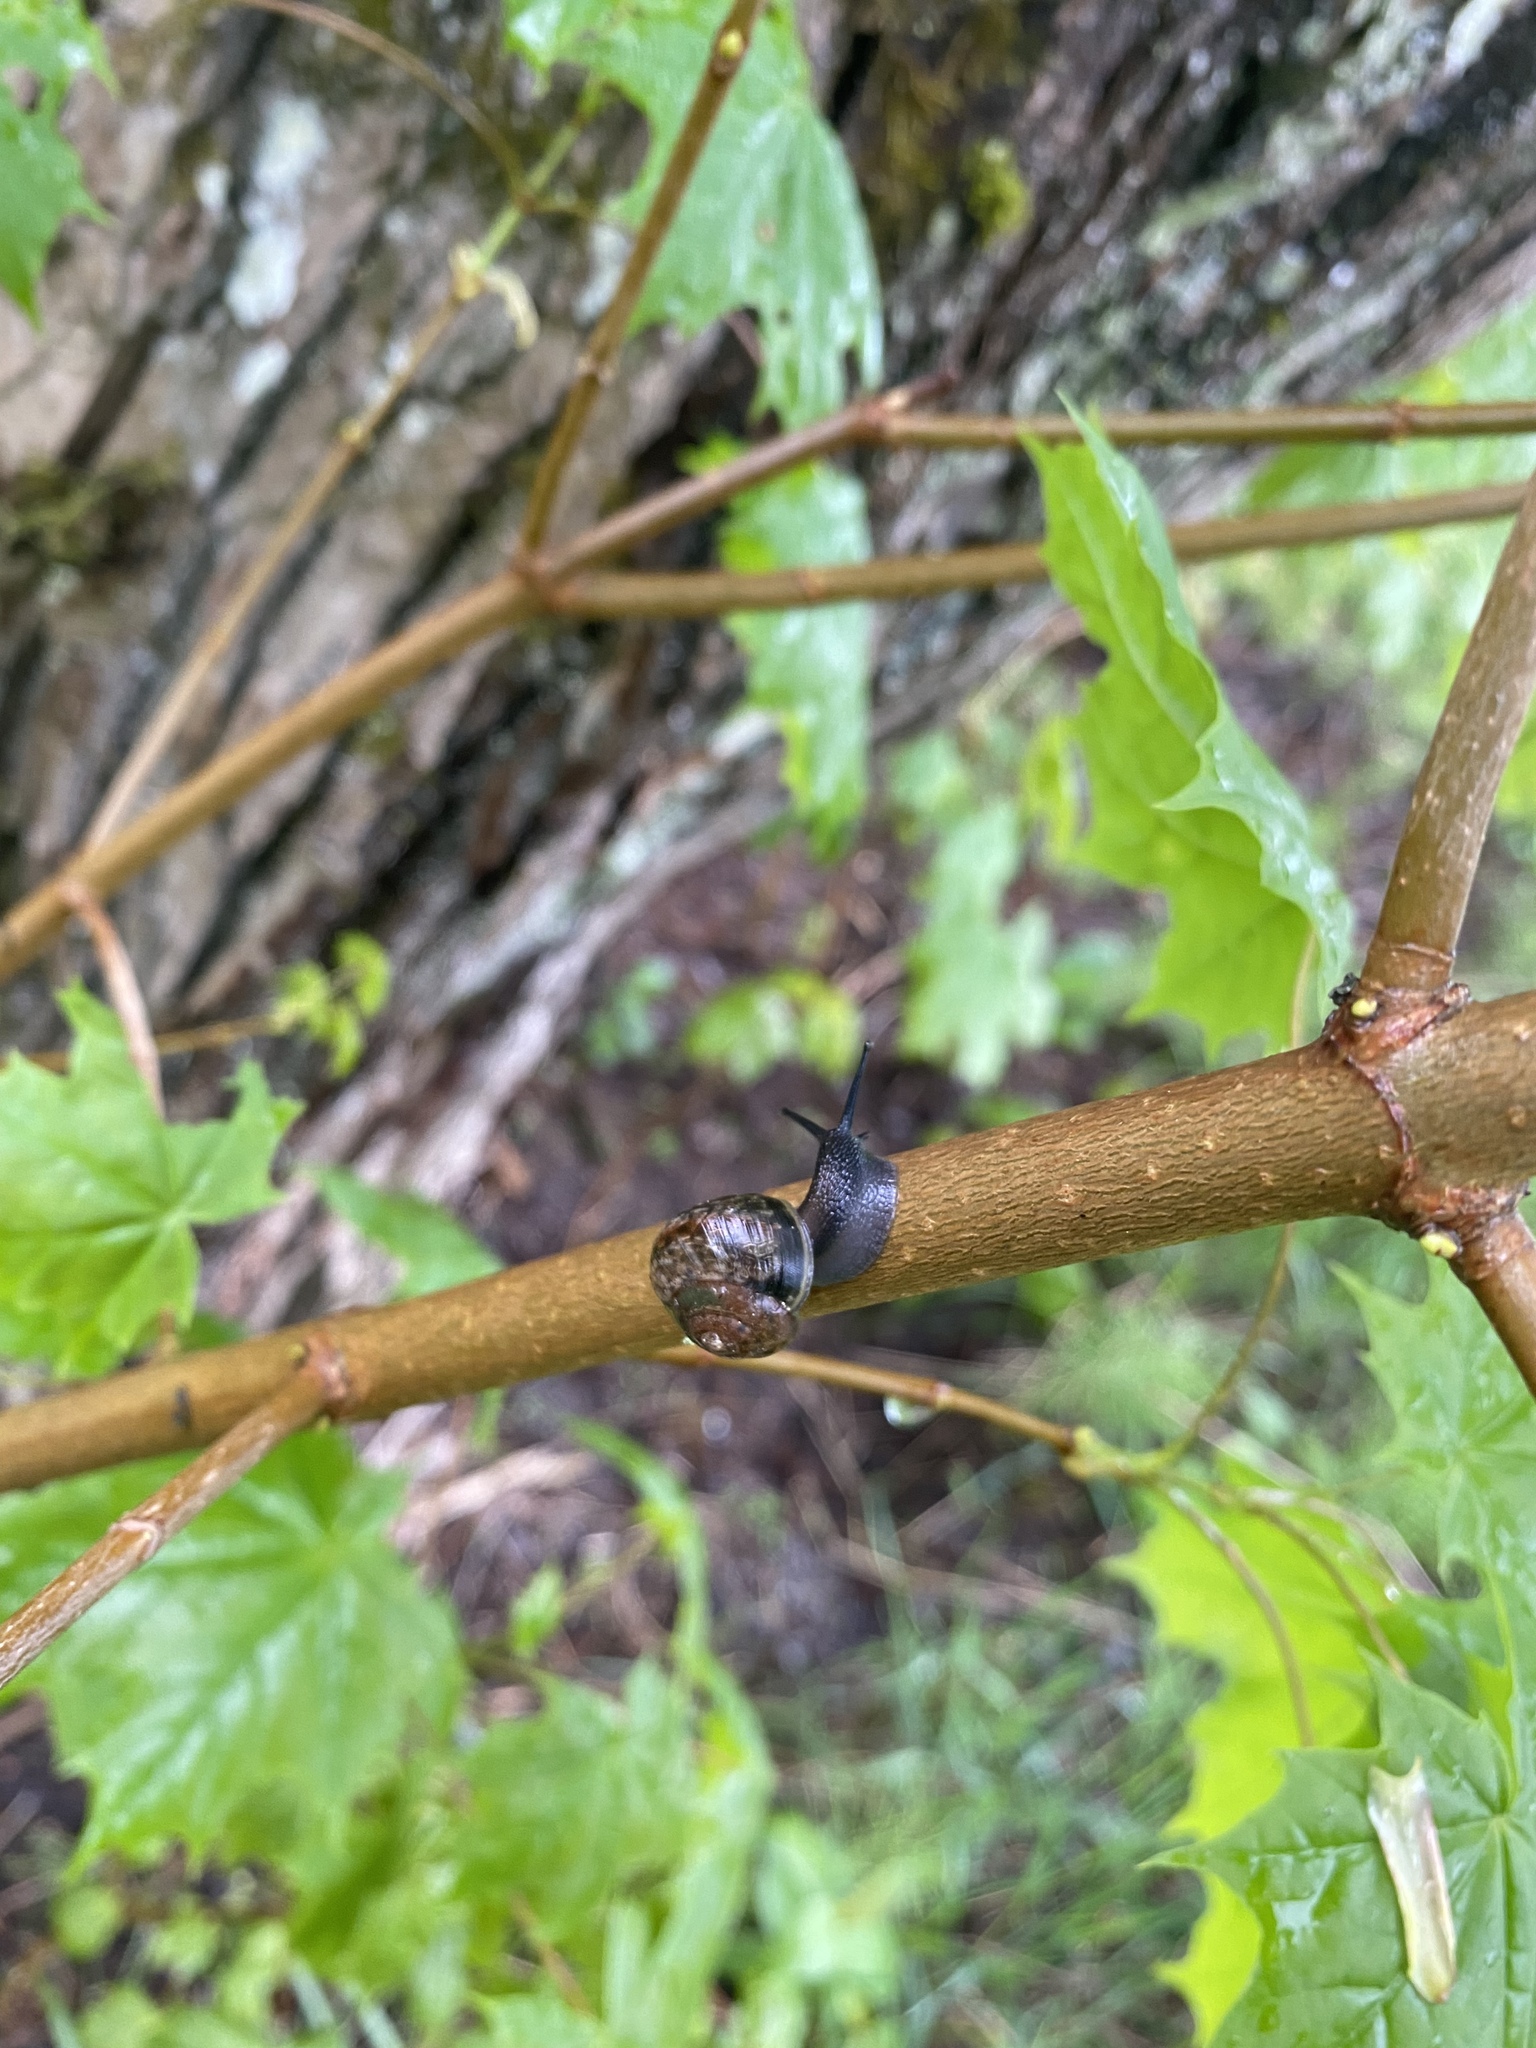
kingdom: Animalia
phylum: Mollusca
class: Gastropoda
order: Stylommatophora
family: Helicidae
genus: Arianta
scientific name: Arianta arbustorum
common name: Copse snail
